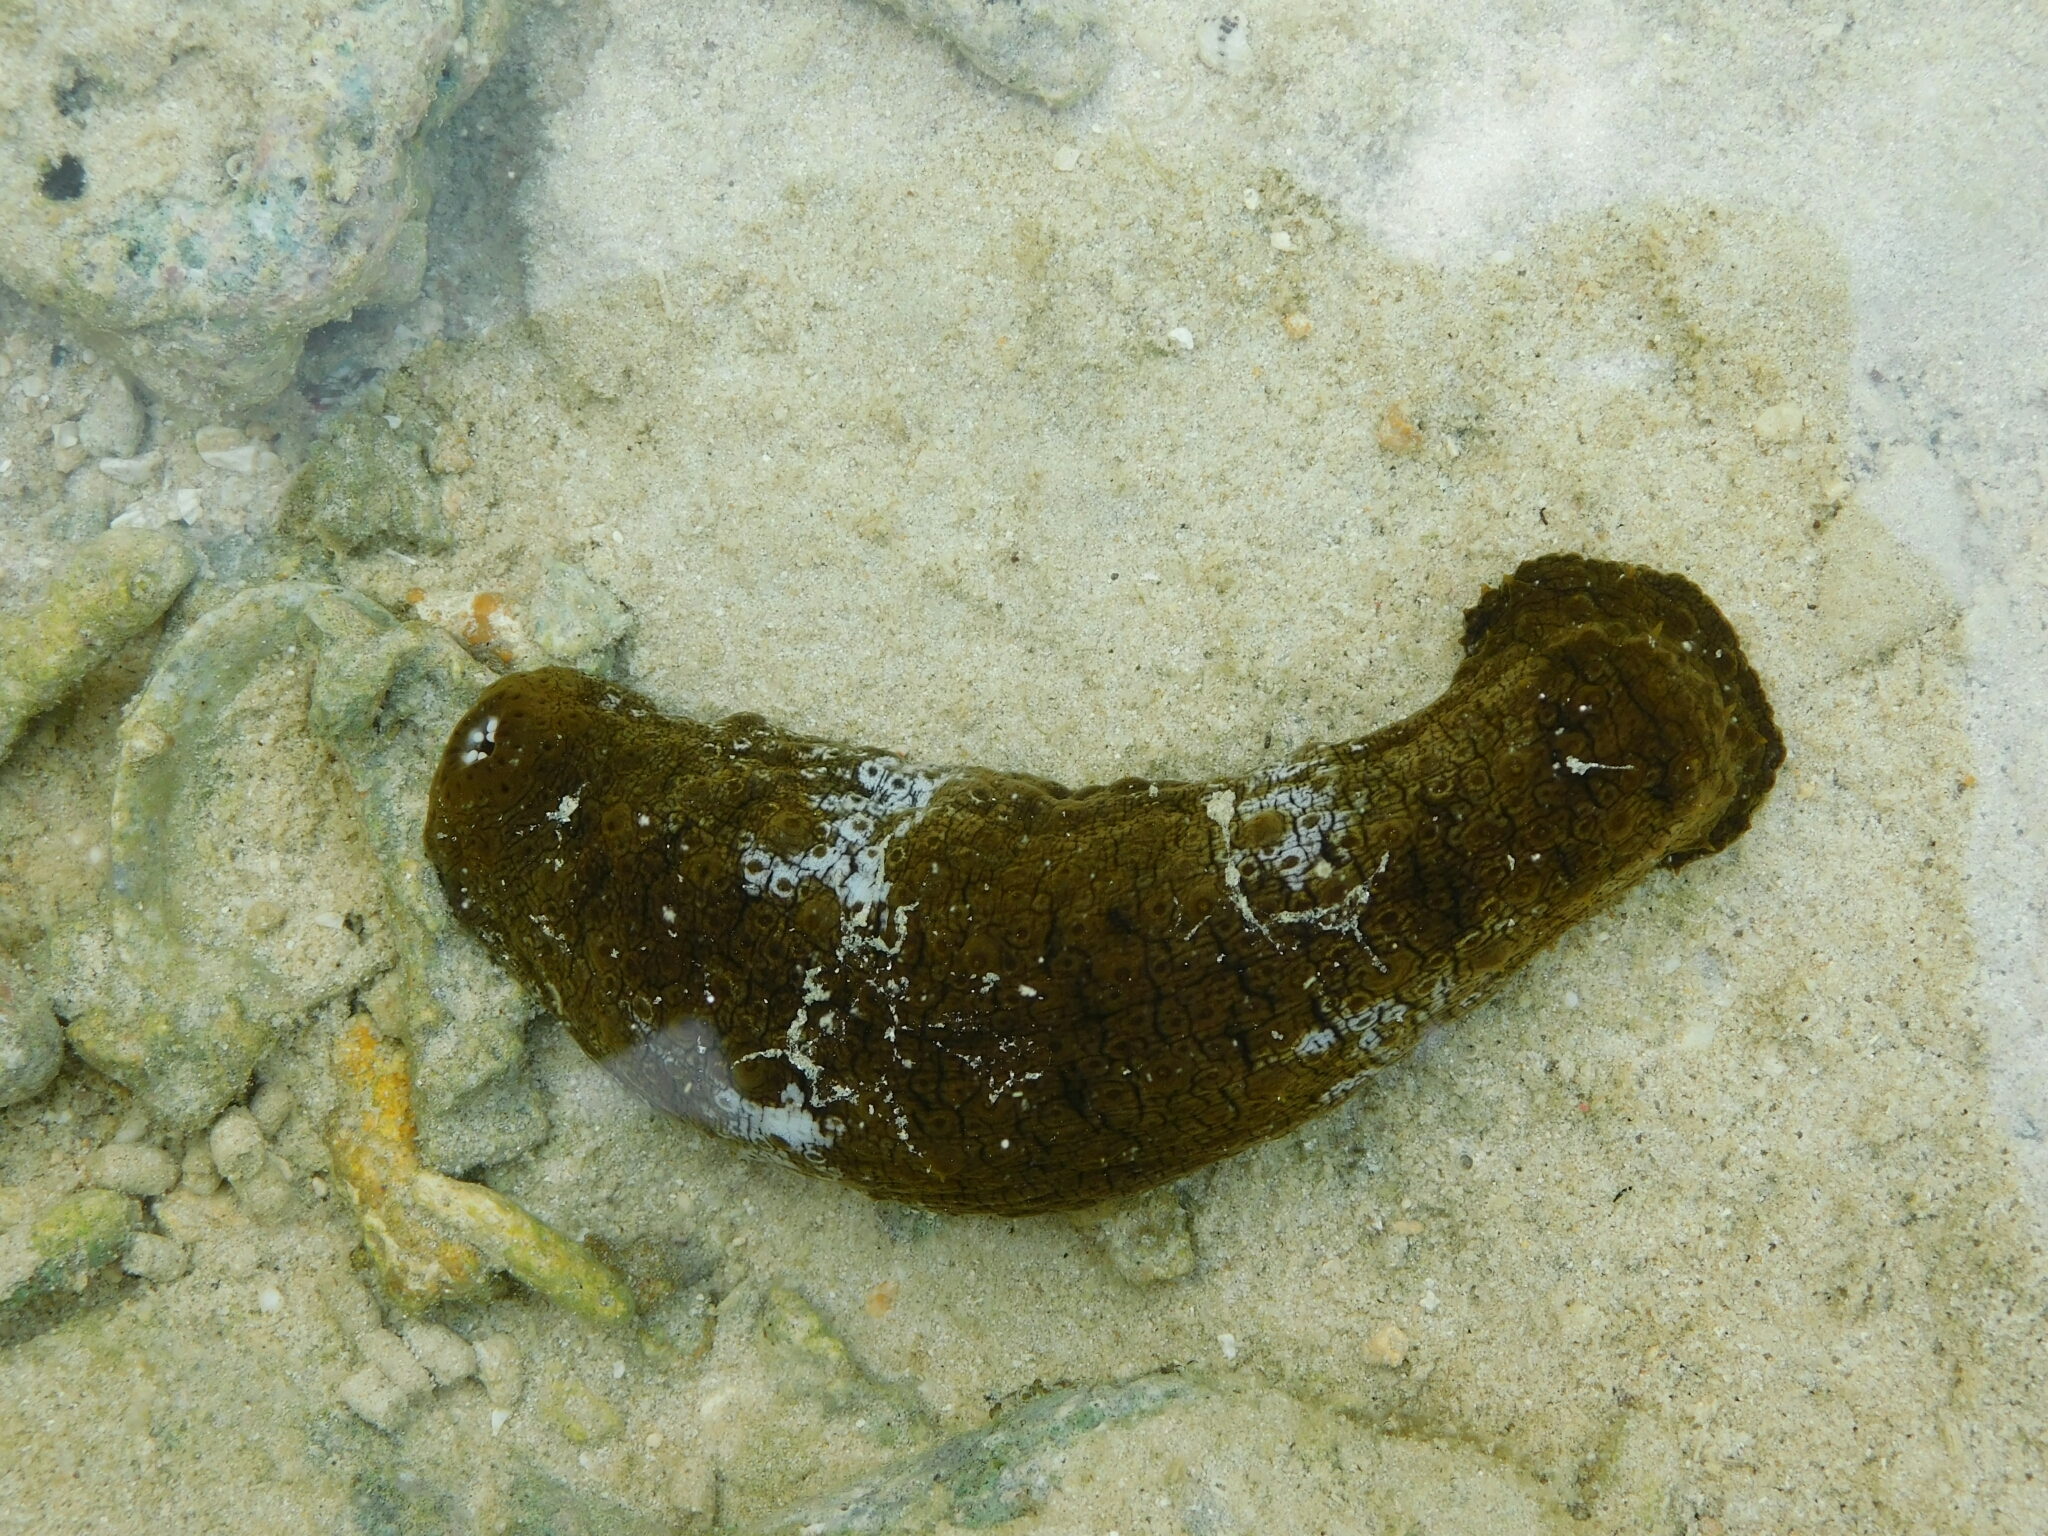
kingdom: Animalia
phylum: Echinodermata
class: Holothuroidea
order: Holothuriida
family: Holothuriidae
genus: Actinopyga
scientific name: Actinopyga mauritiana
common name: Surf redfish
